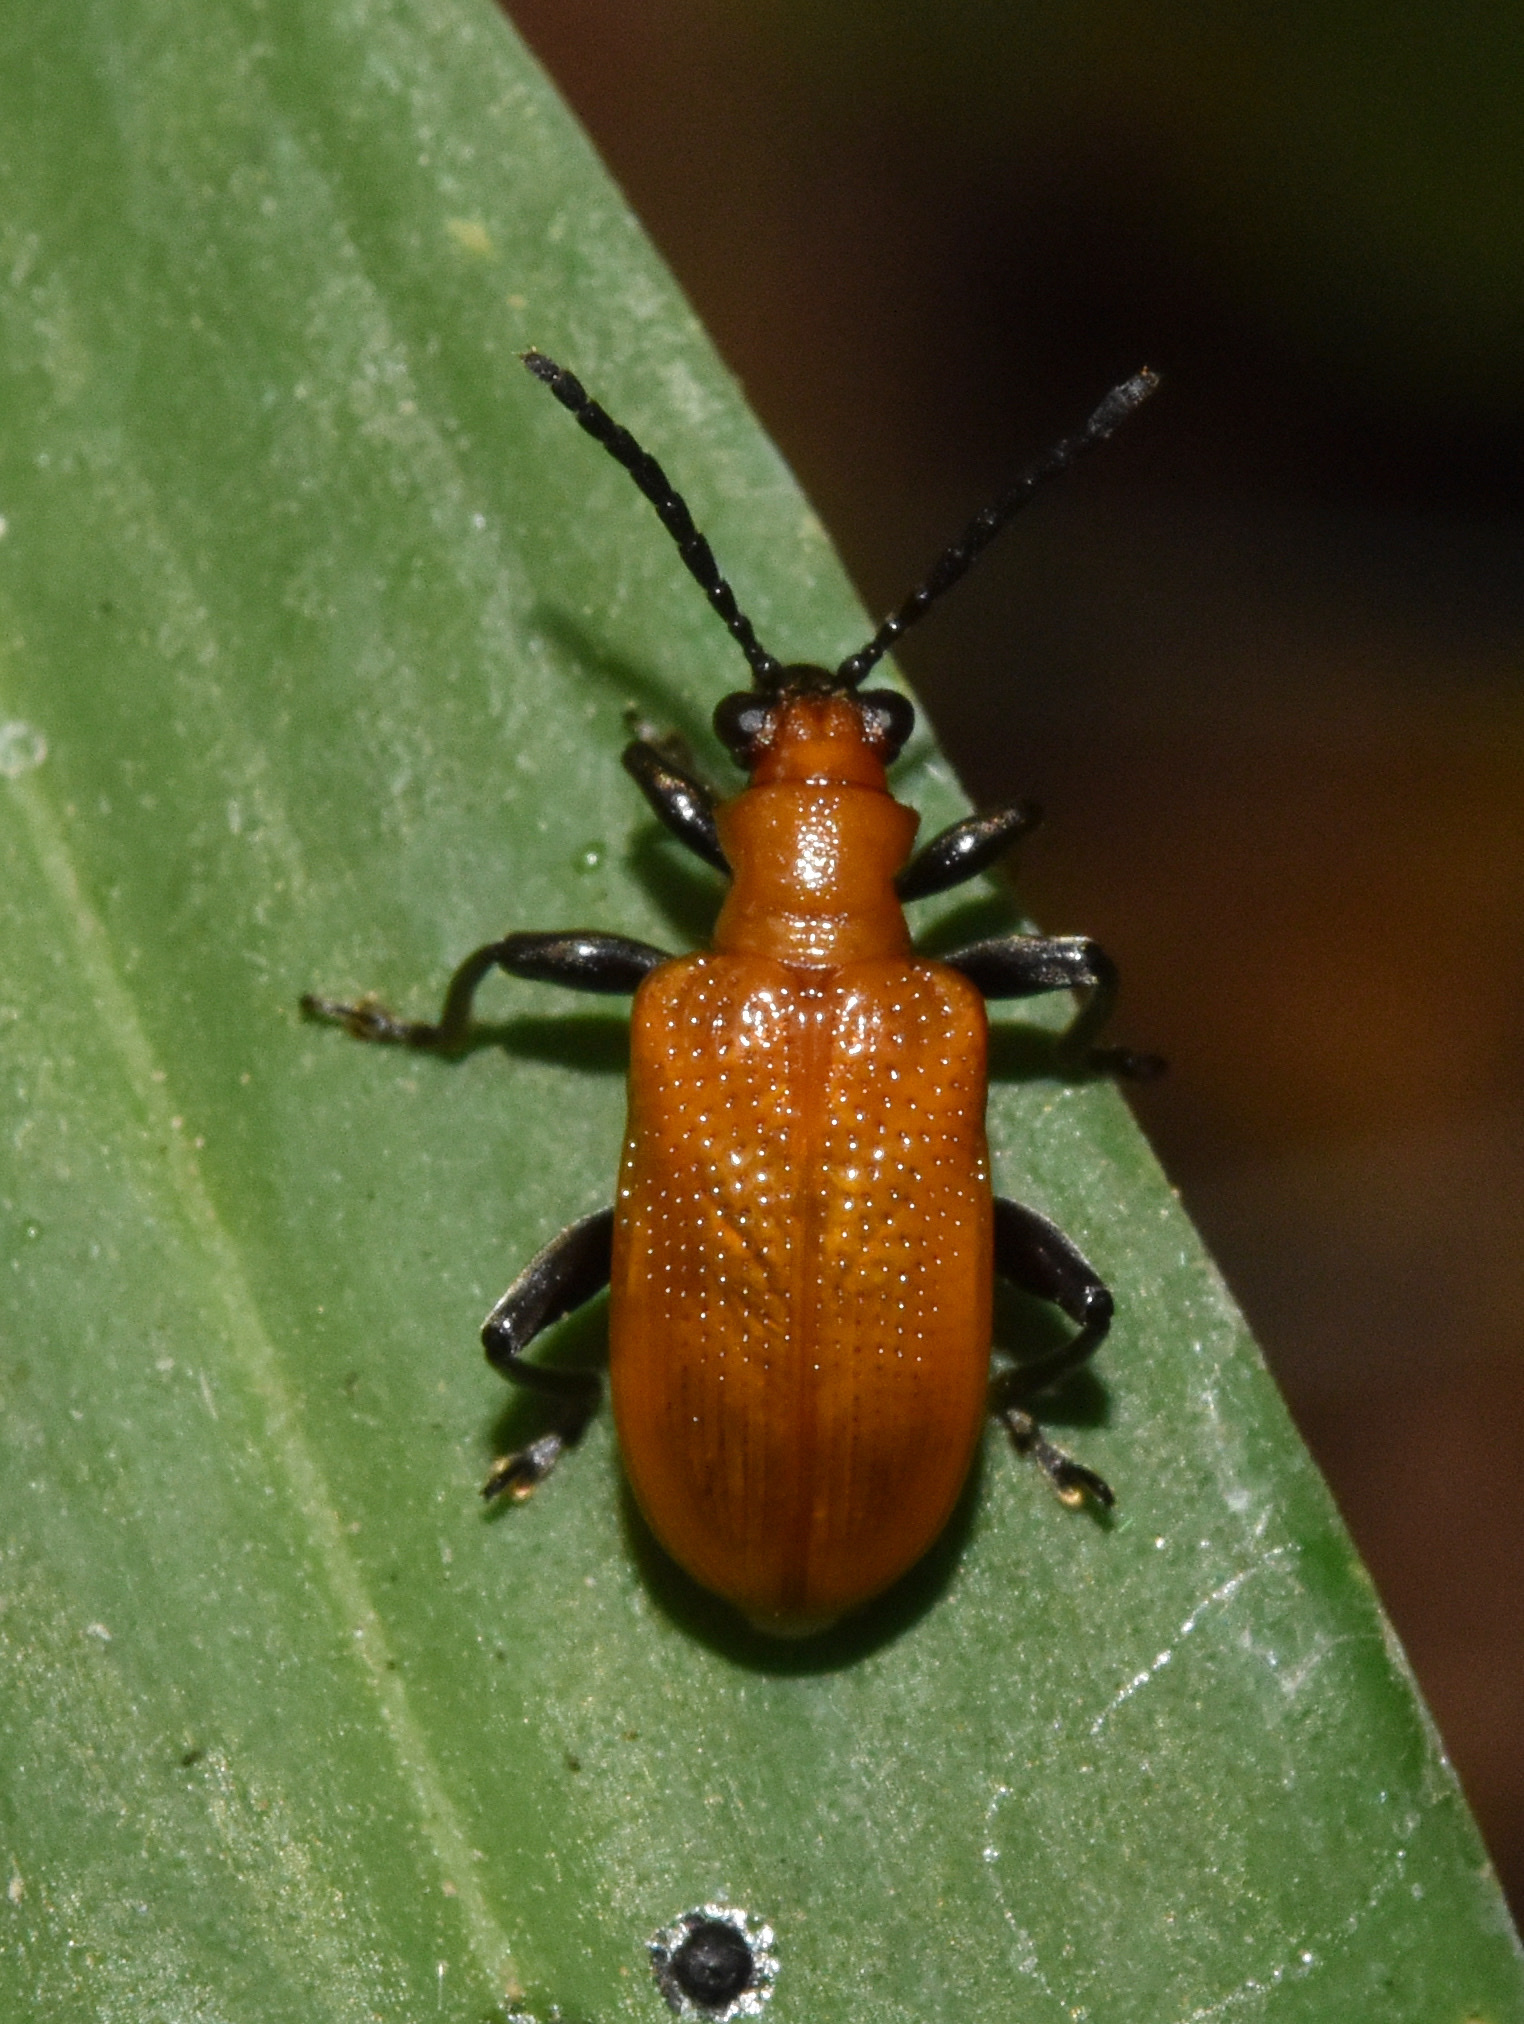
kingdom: Animalia
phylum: Arthropoda
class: Insecta
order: Coleoptera
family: Chrysomelidae
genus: Lema
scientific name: Lema
